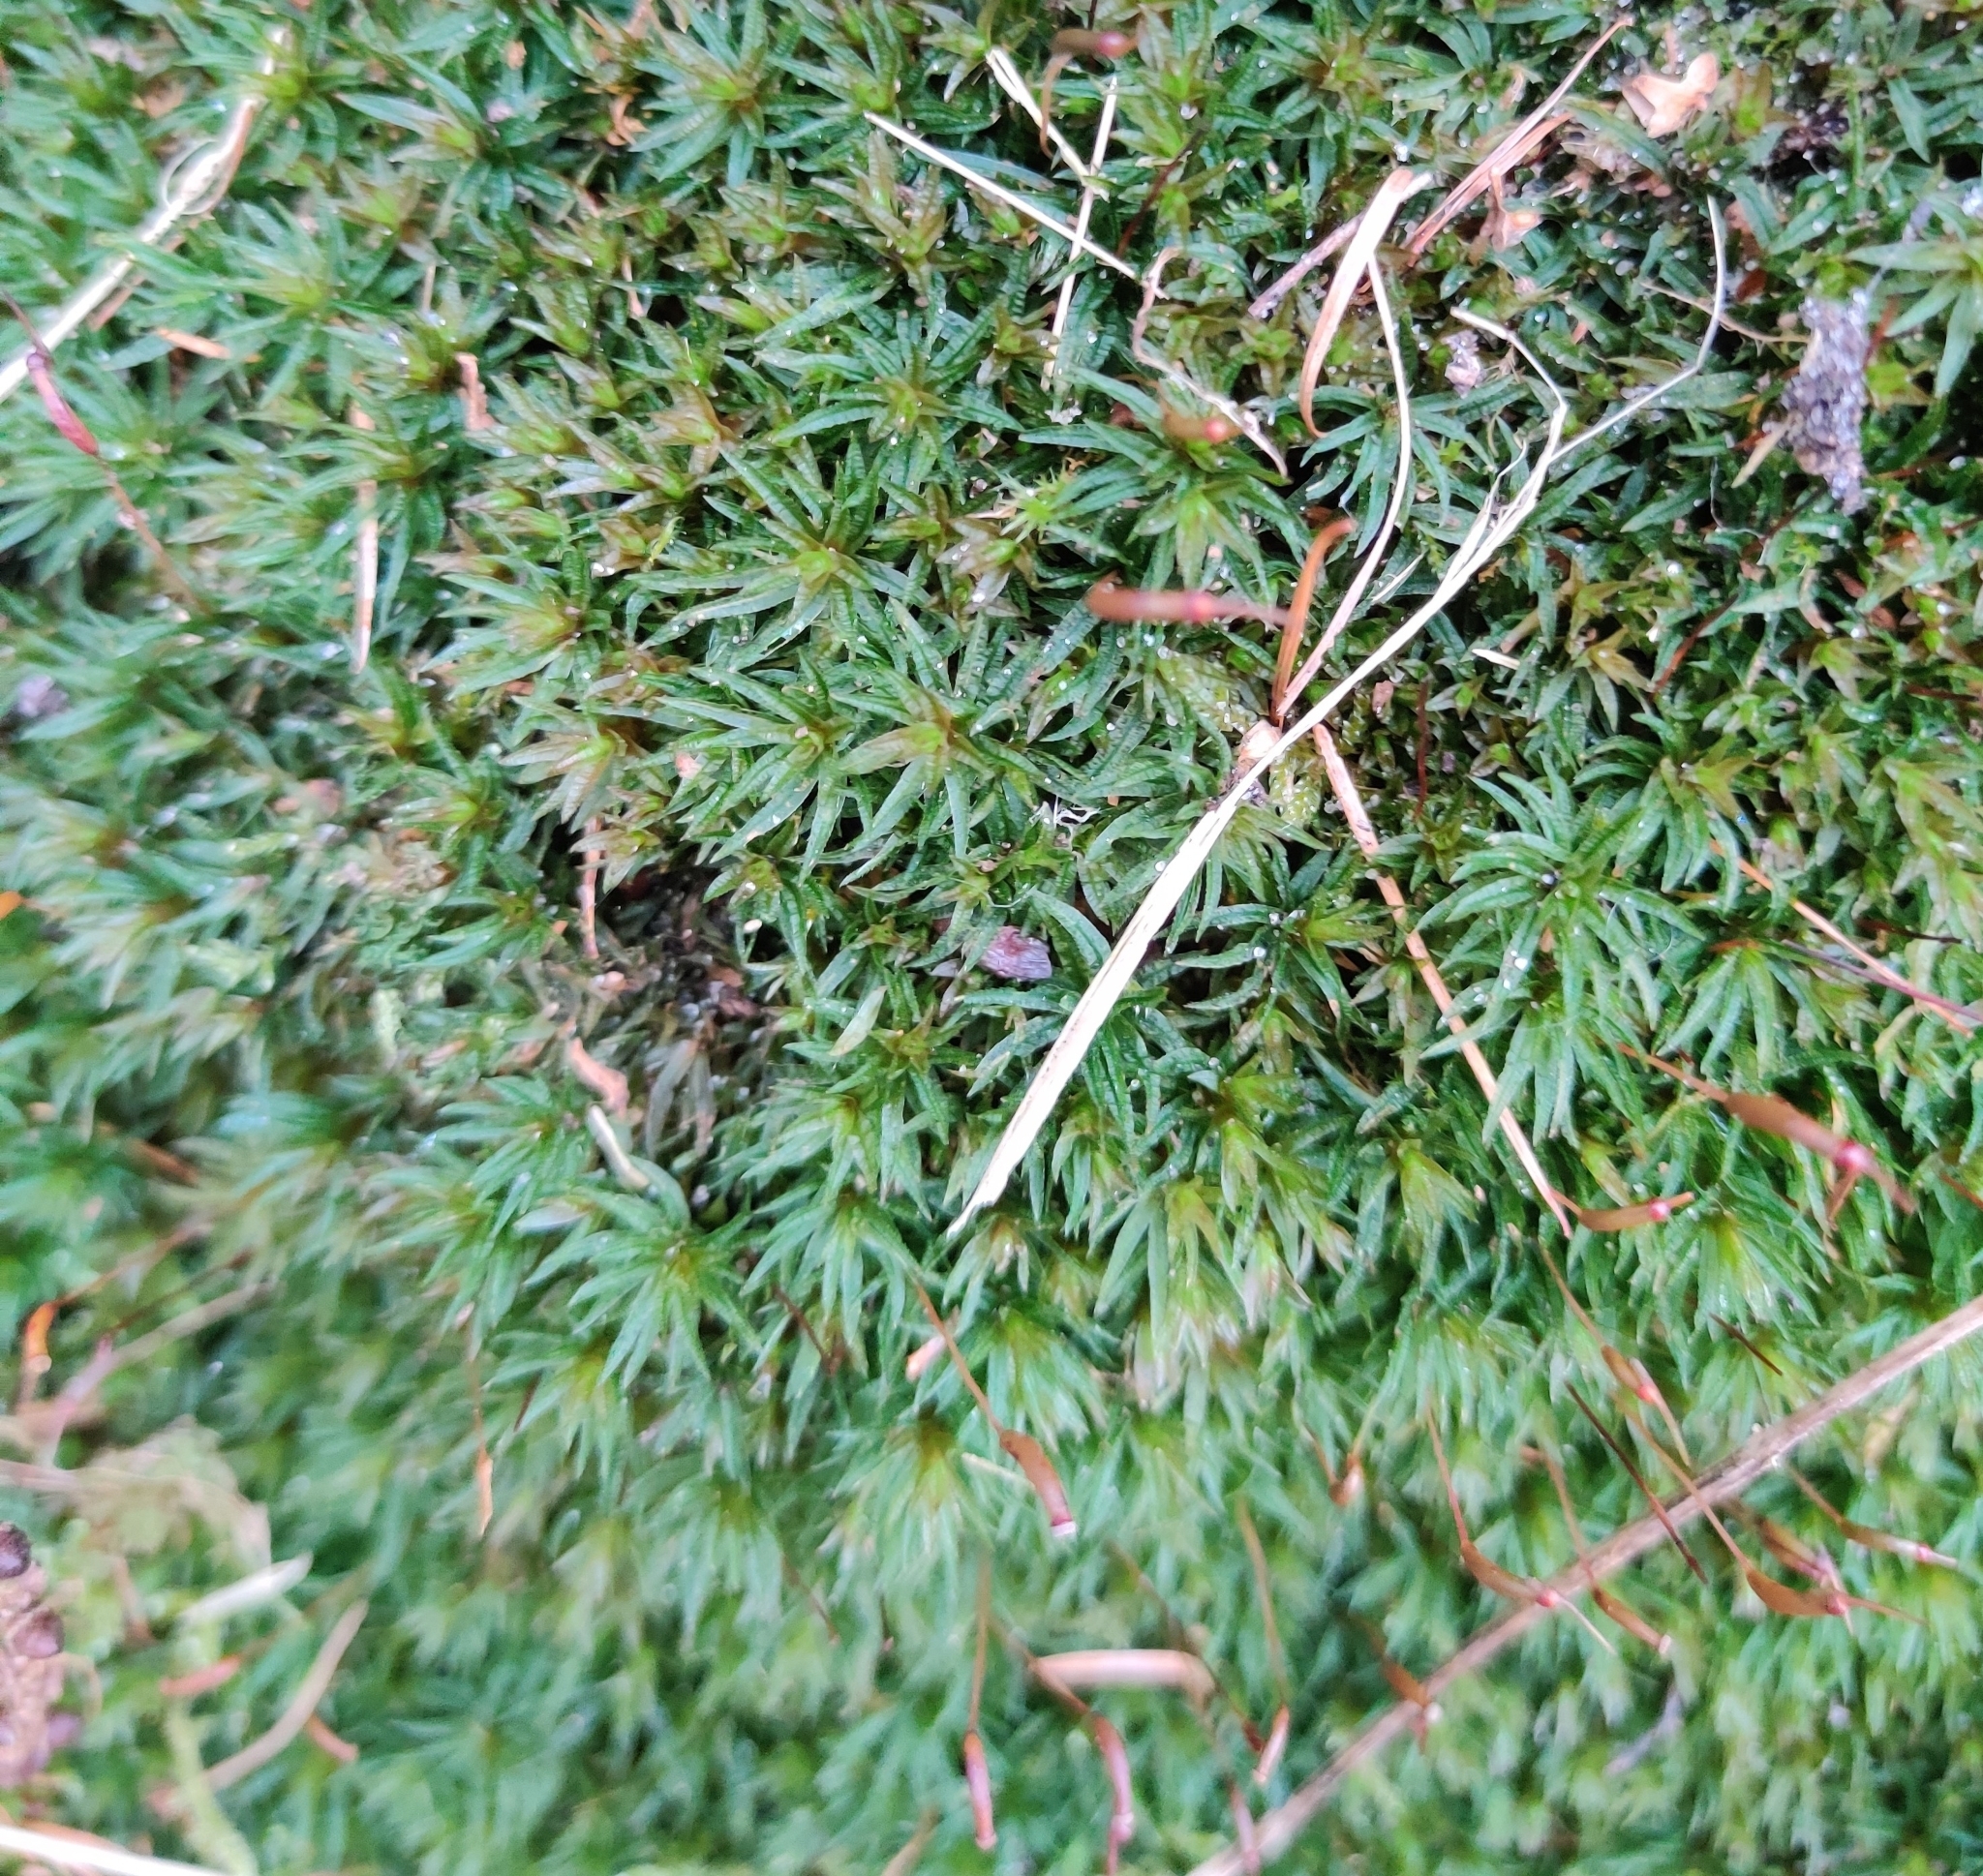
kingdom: Plantae
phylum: Bryophyta
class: Polytrichopsida
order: Polytrichales
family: Polytrichaceae
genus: Atrichum
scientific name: Atrichum undulatum
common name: Common smoothcap
